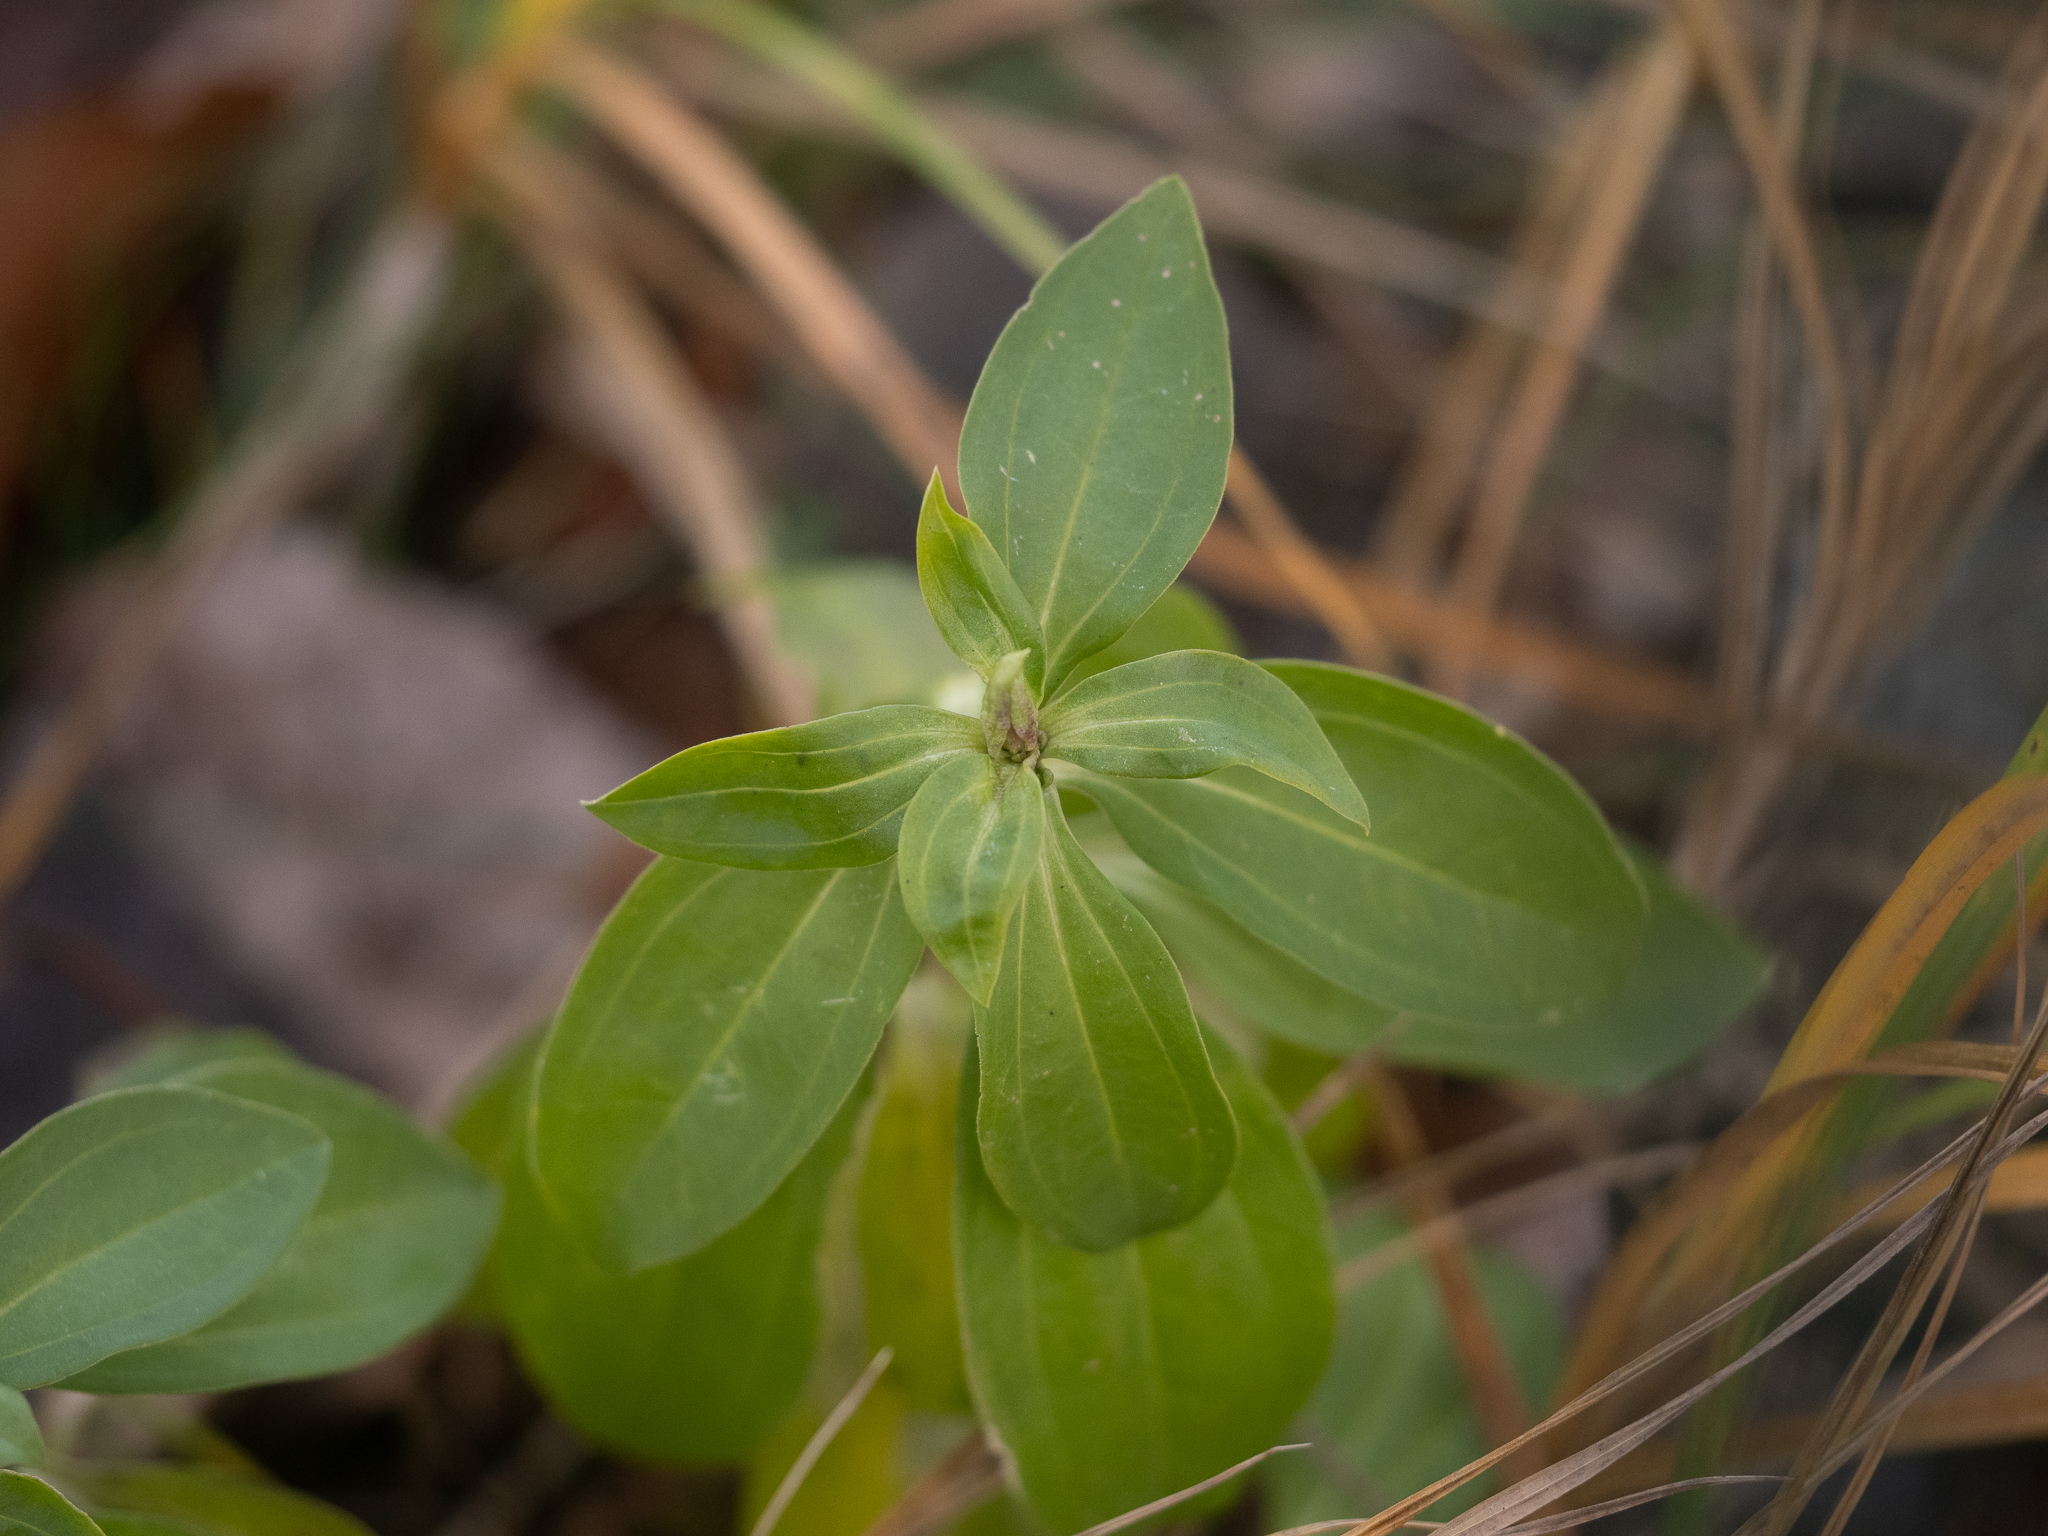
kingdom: Plantae
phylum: Tracheophyta
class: Magnoliopsida
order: Caryophyllales
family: Caryophyllaceae
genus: Saponaria
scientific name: Saponaria officinalis
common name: Soapwort
